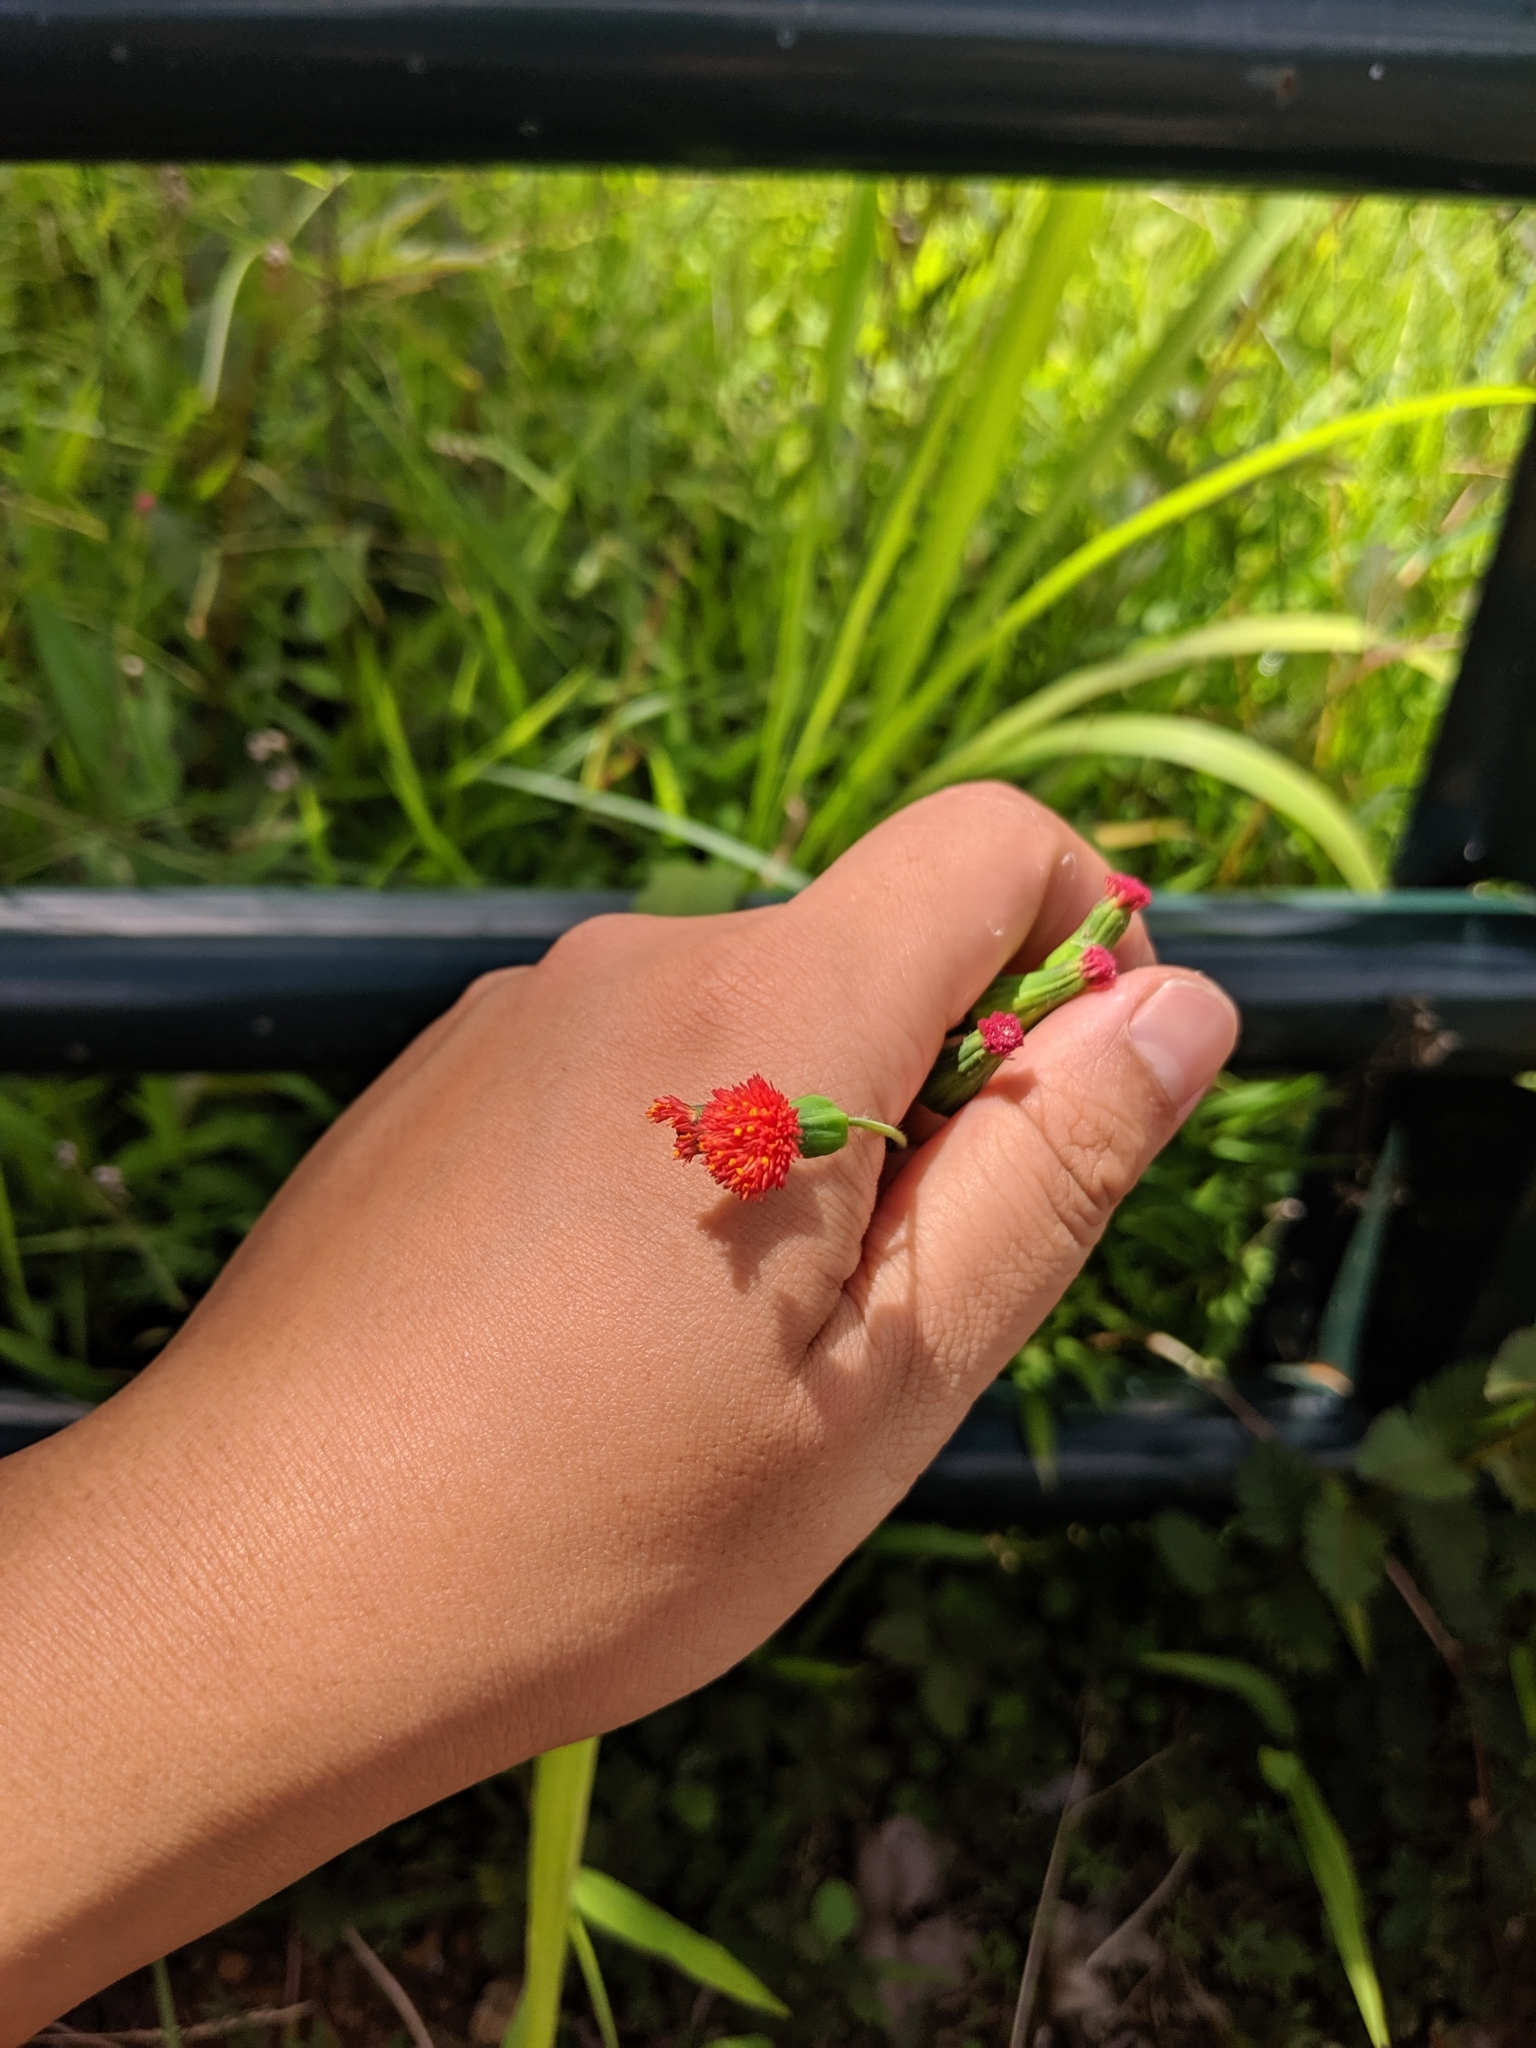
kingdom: Plantae
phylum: Tracheophyta
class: Magnoliopsida
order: Asterales
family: Asteraceae
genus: Emilia
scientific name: Emilia fosbergii
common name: Florida tasselflower
